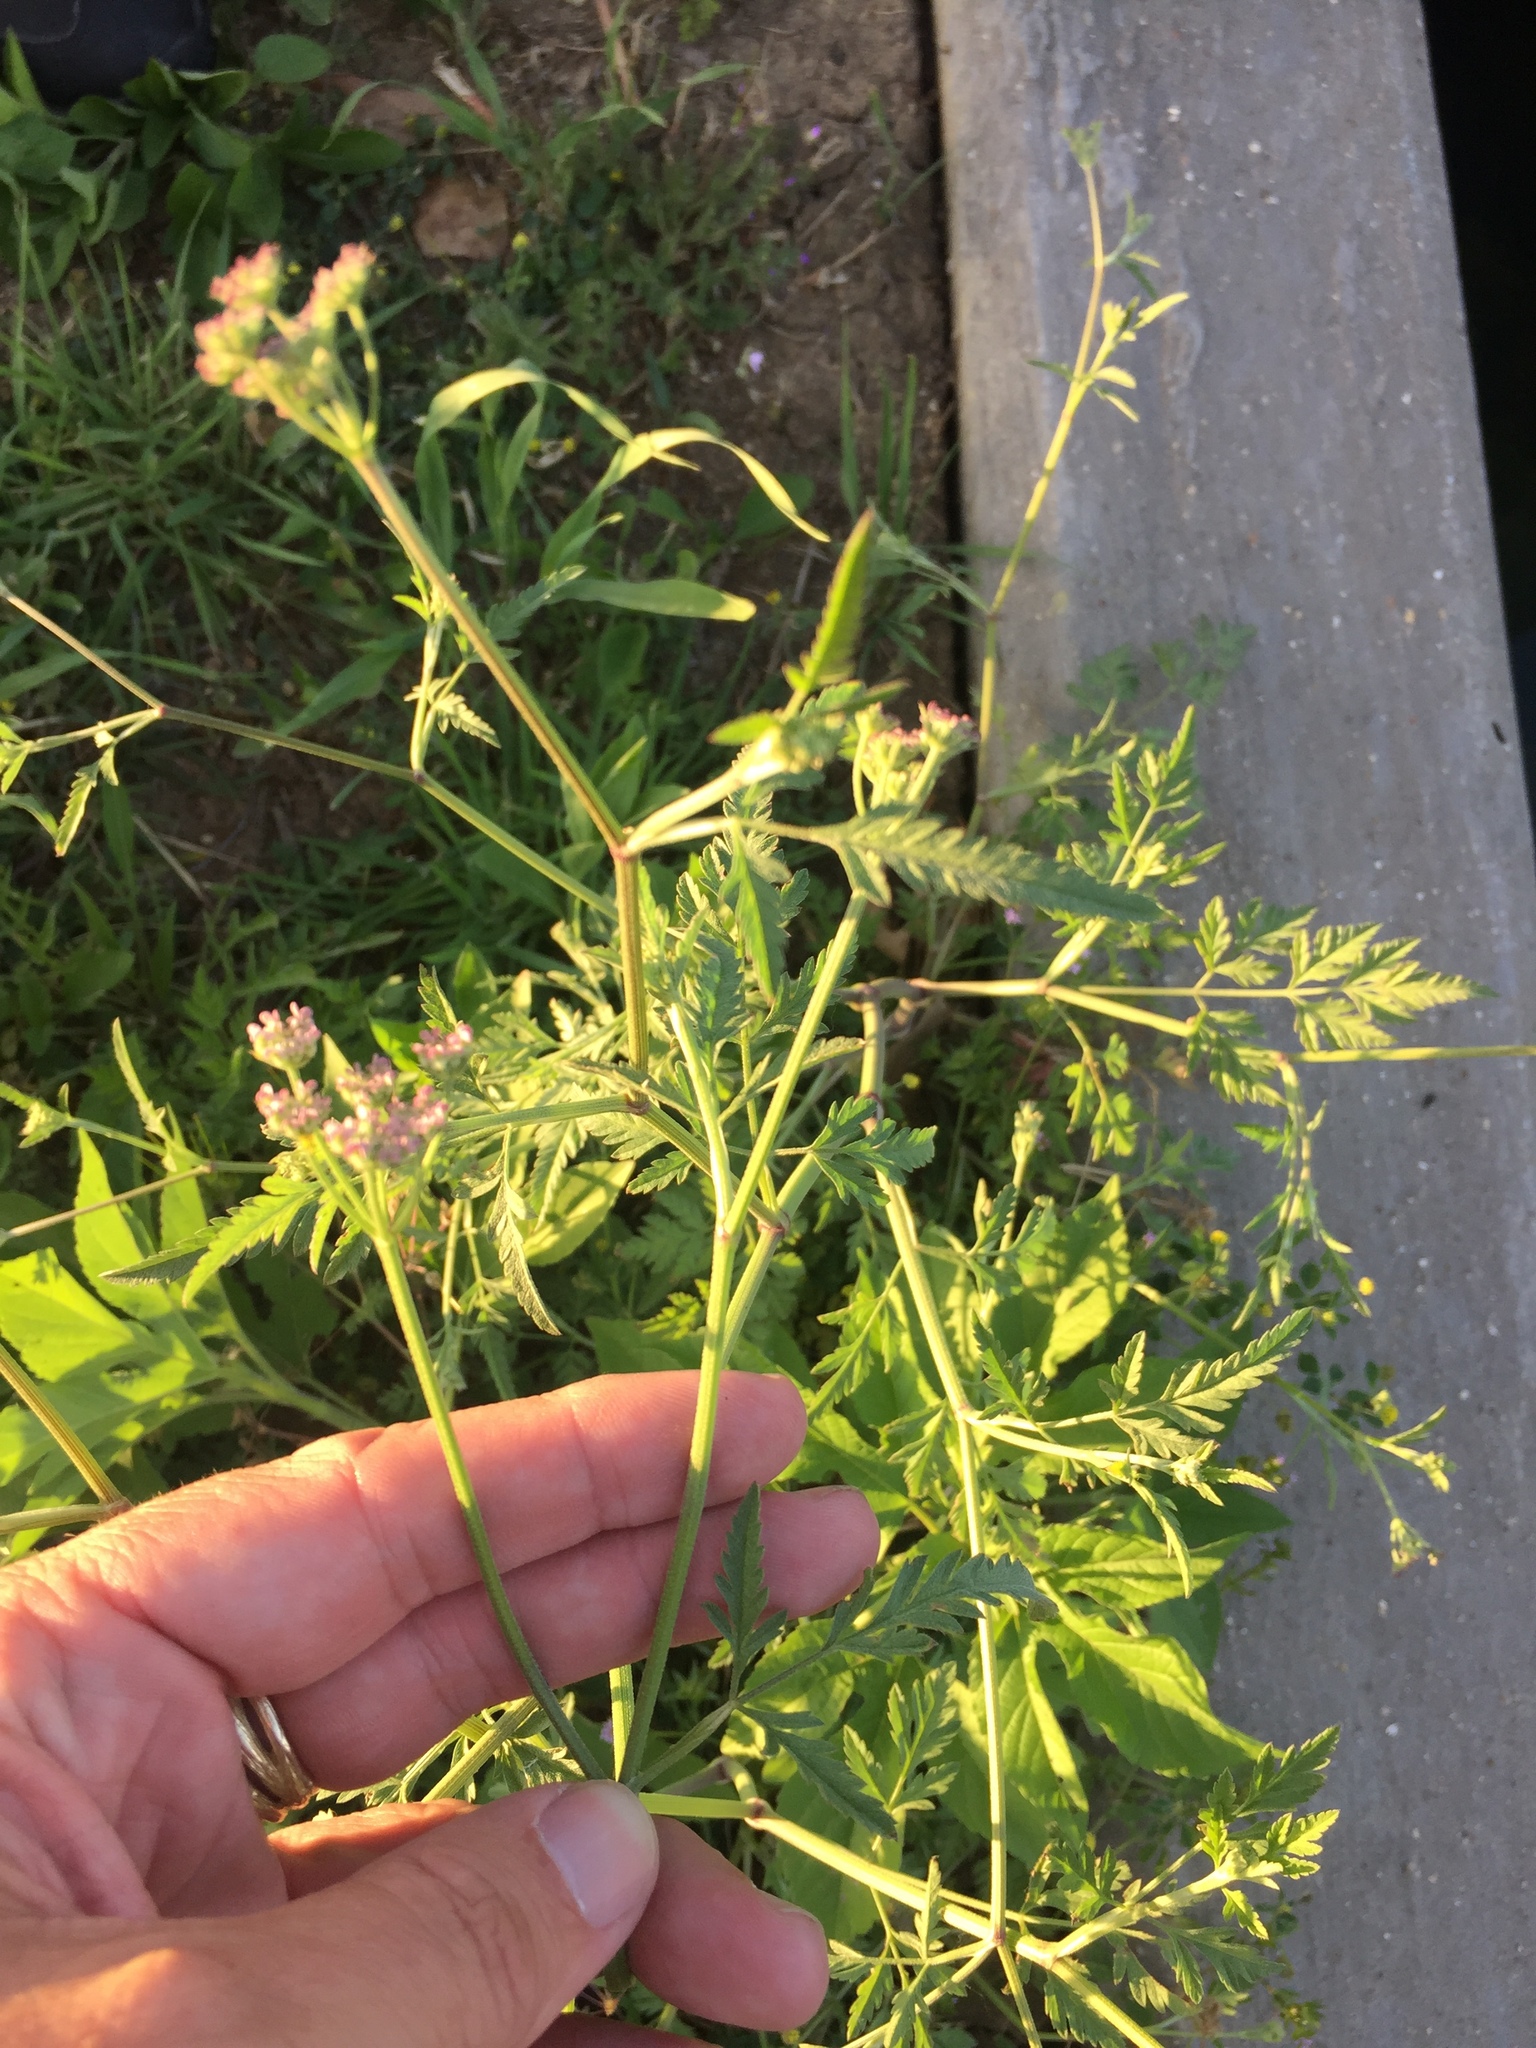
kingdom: Plantae
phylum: Tracheophyta
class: Magnoliopsida
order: Apiales
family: Apiaceae
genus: Torilis
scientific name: Torilis arvensis
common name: Spreading hedge-parsley
